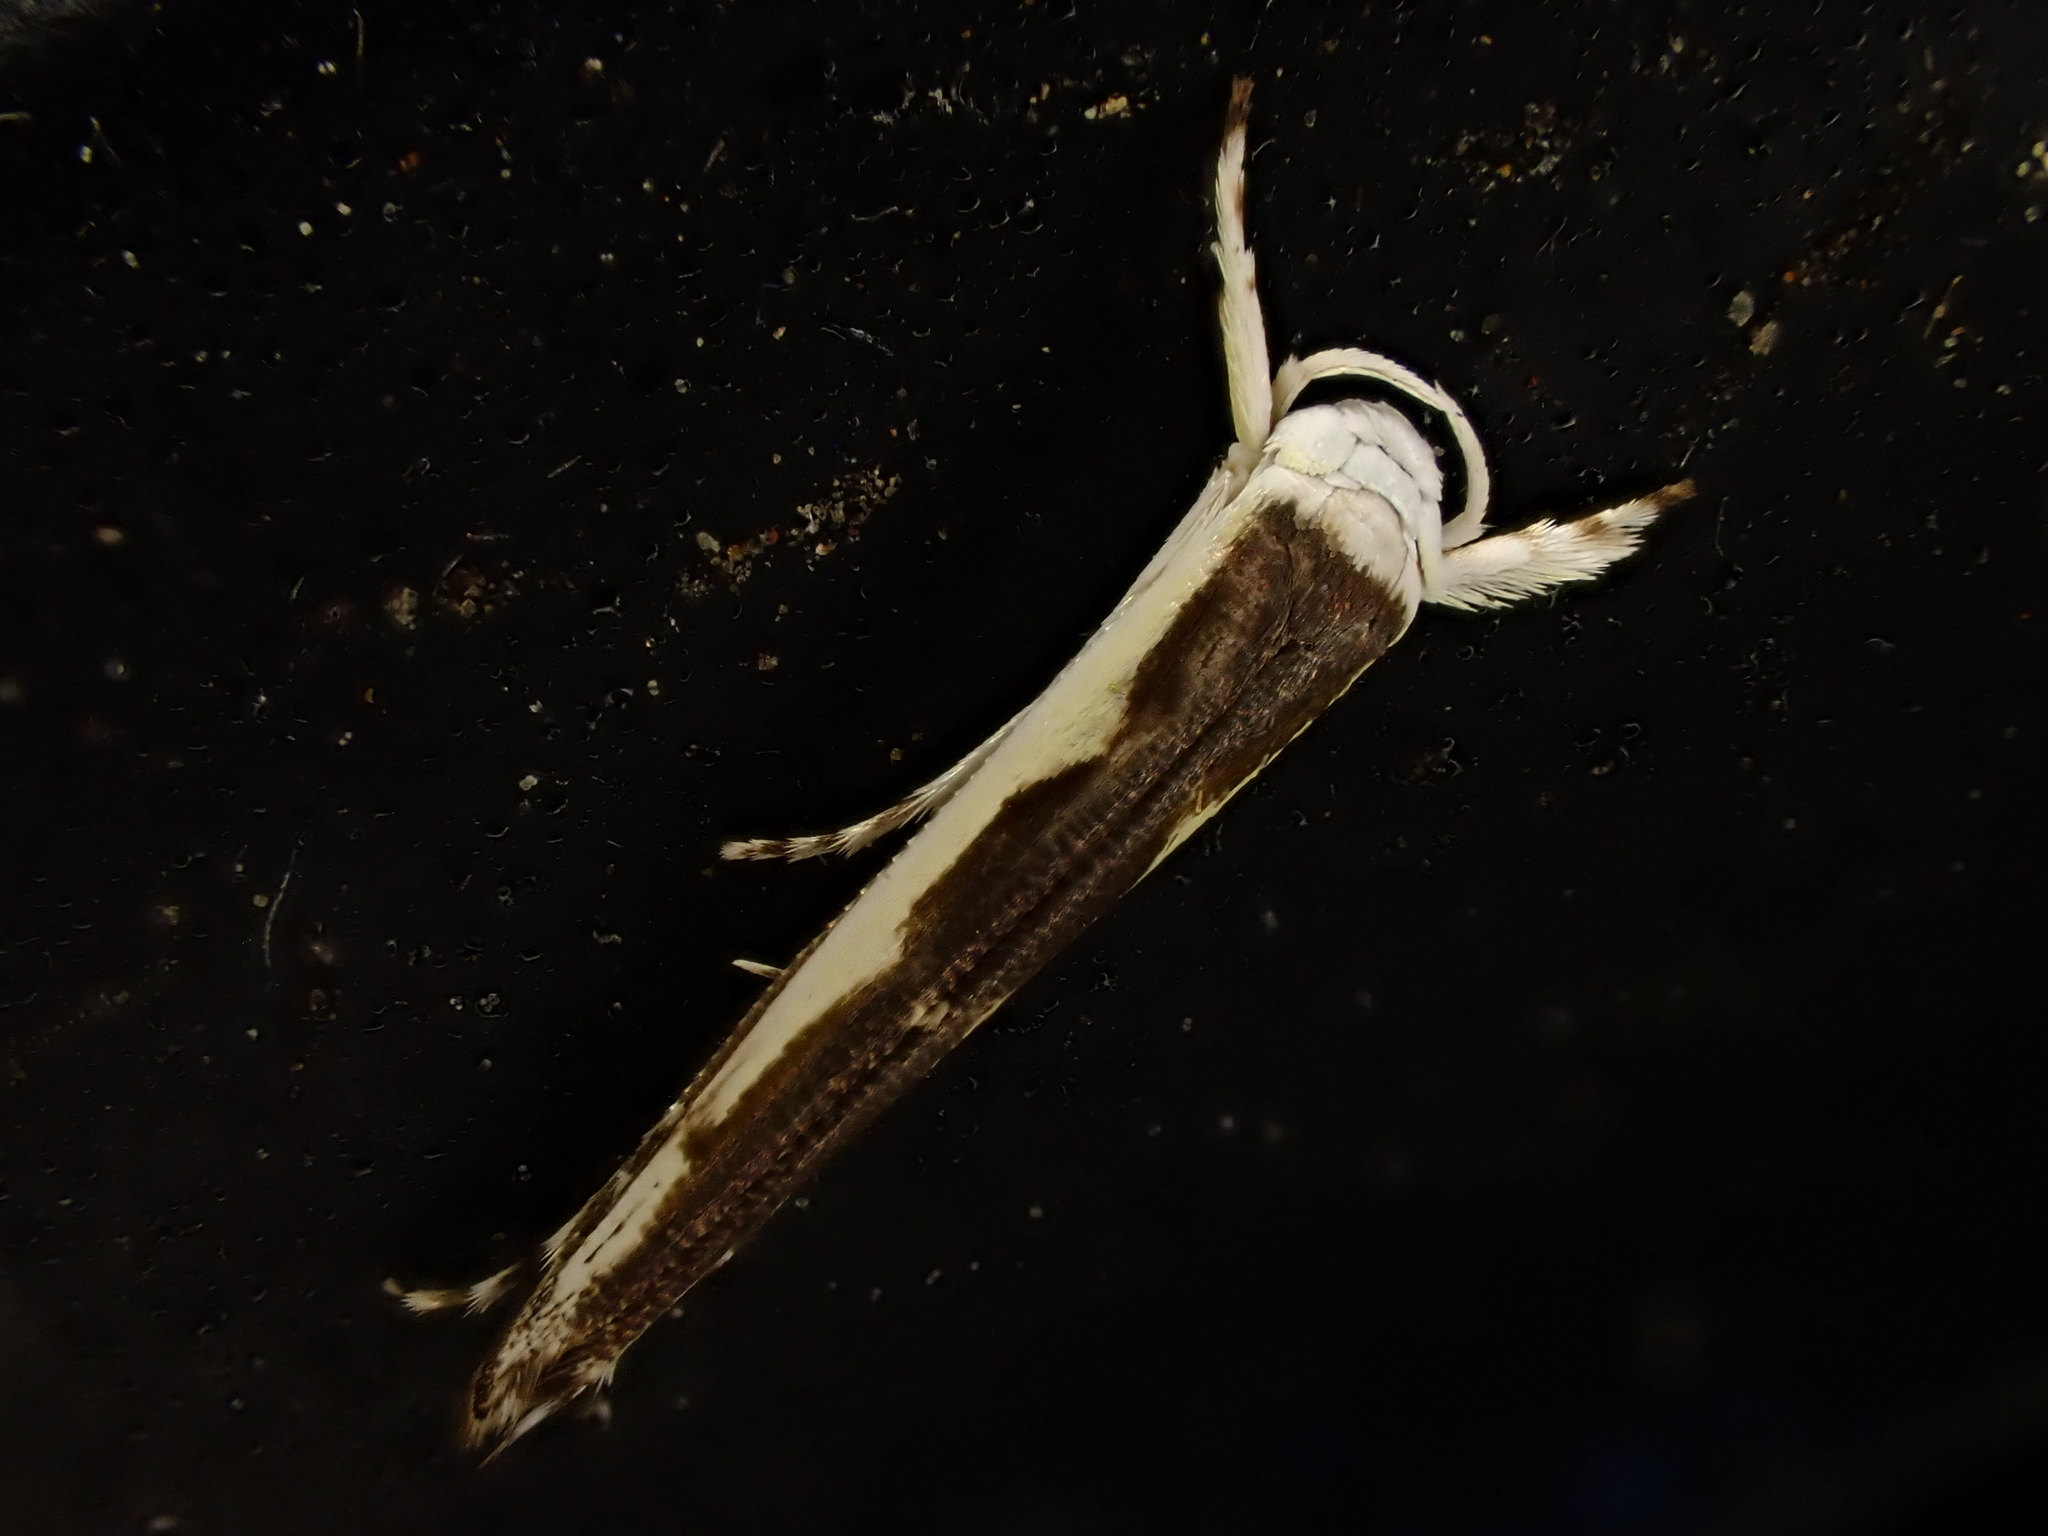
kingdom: Animalia
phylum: Arthropoda
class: Insecta
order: Lepidoptera
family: Roeslerstammiidae
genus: Vanicela
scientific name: Vanicela disjunctella
